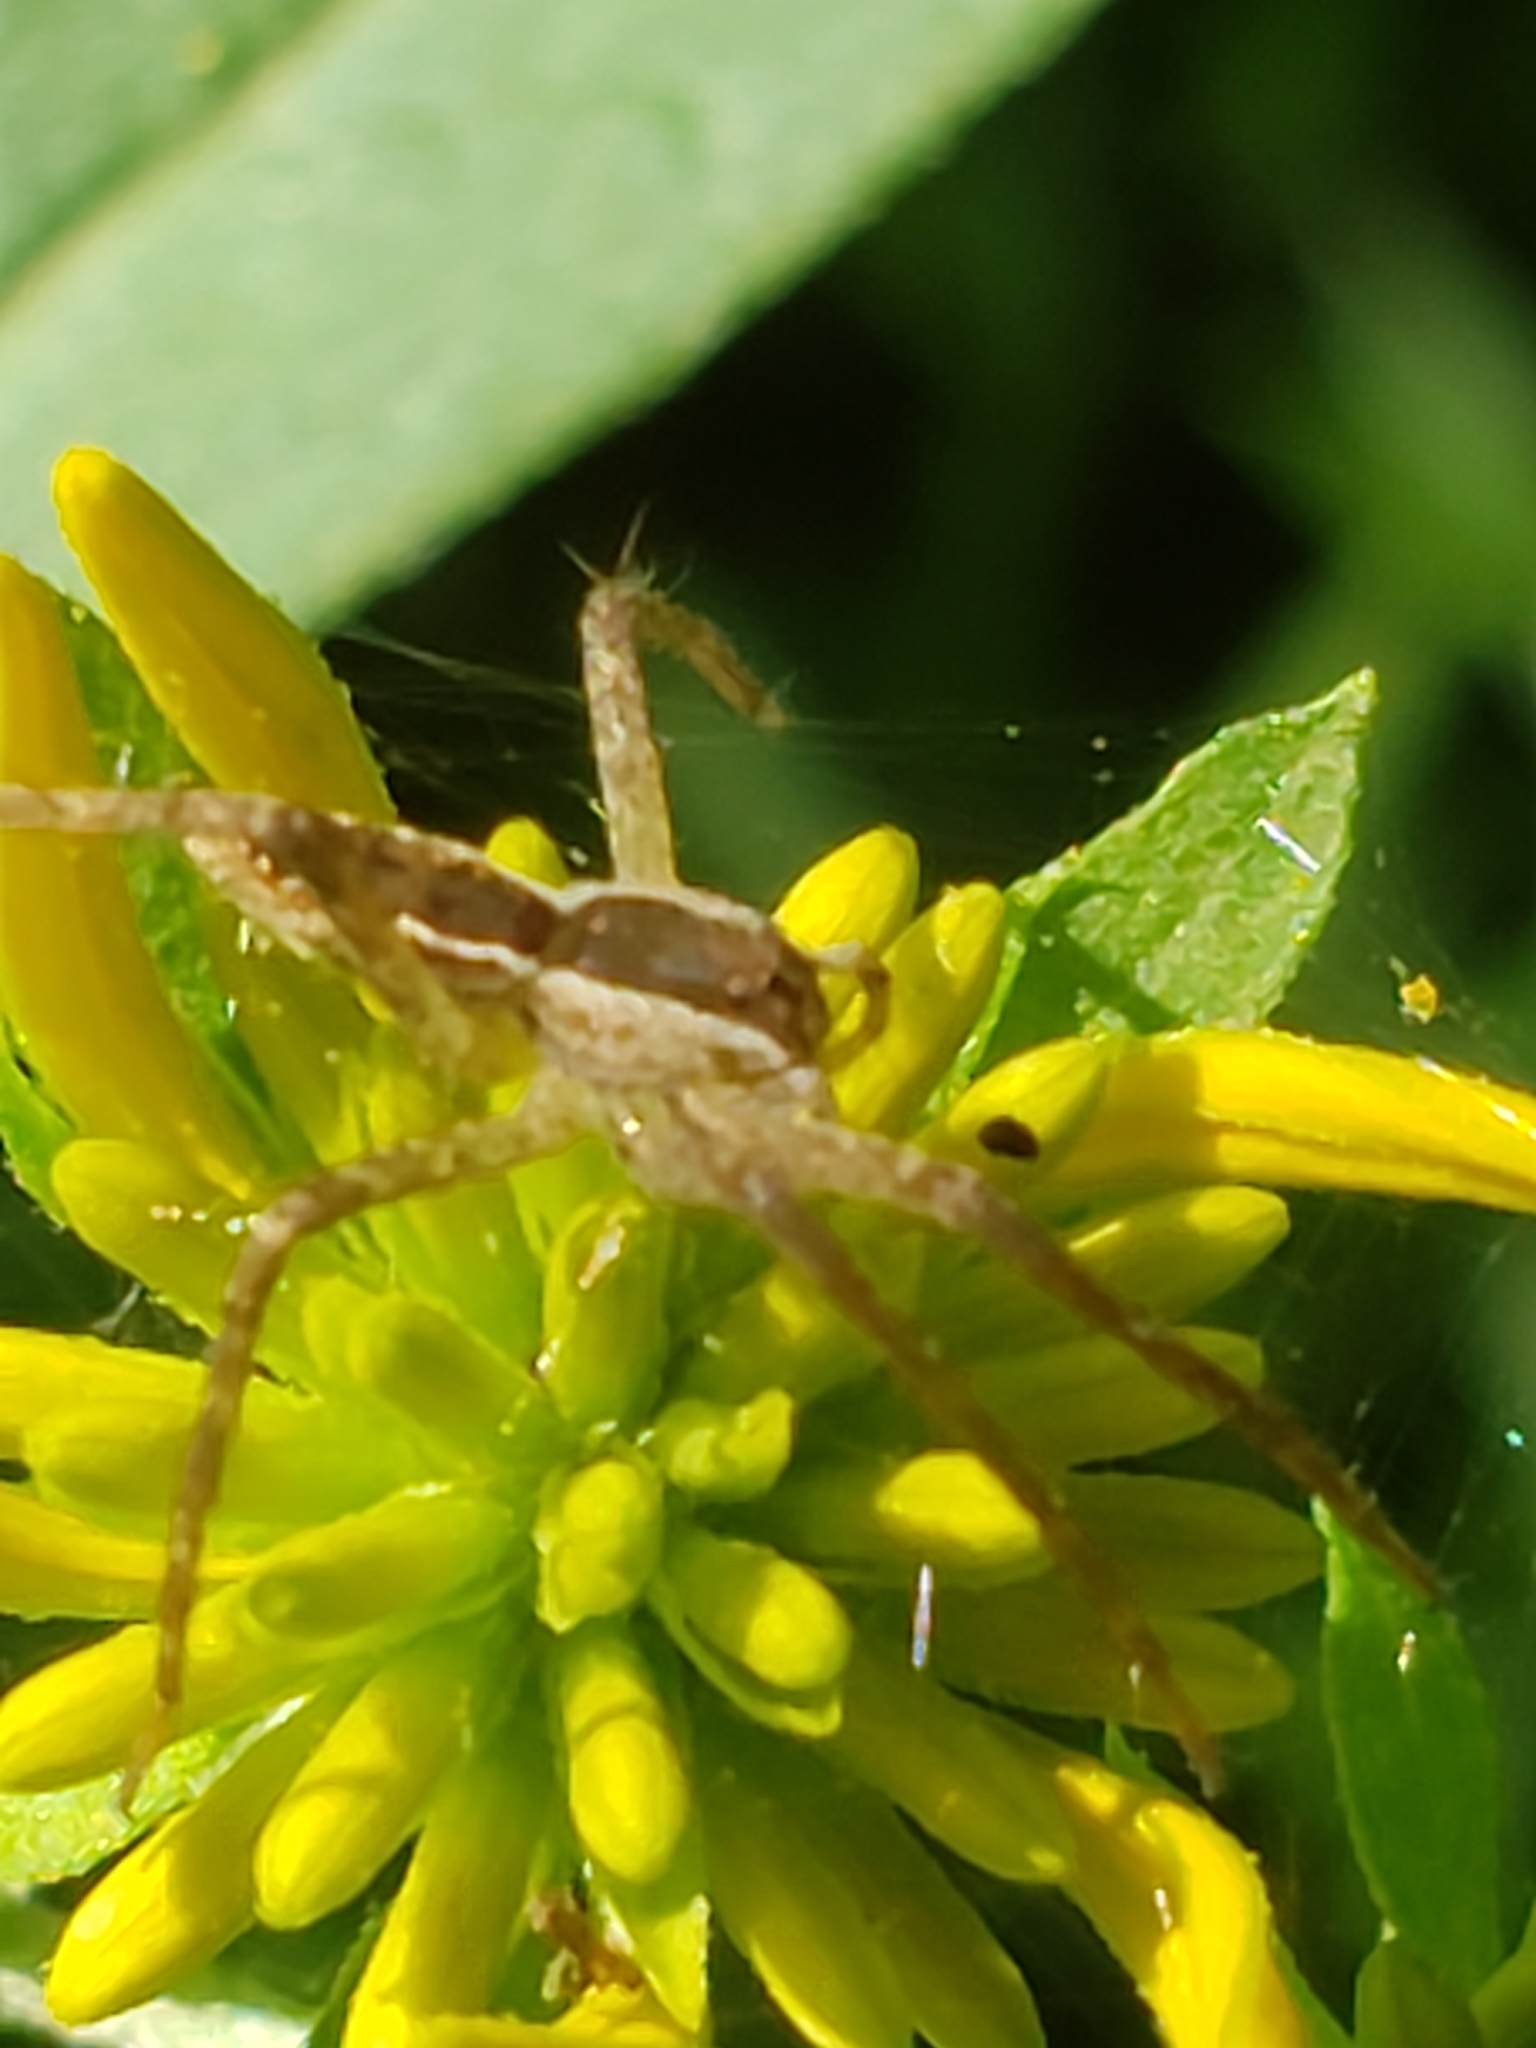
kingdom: Animalia
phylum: Arthropoda
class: Arachnida
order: Araneae
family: Pisauridae
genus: Pisaurina
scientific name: Pisaurina mira
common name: American nursery web spider
